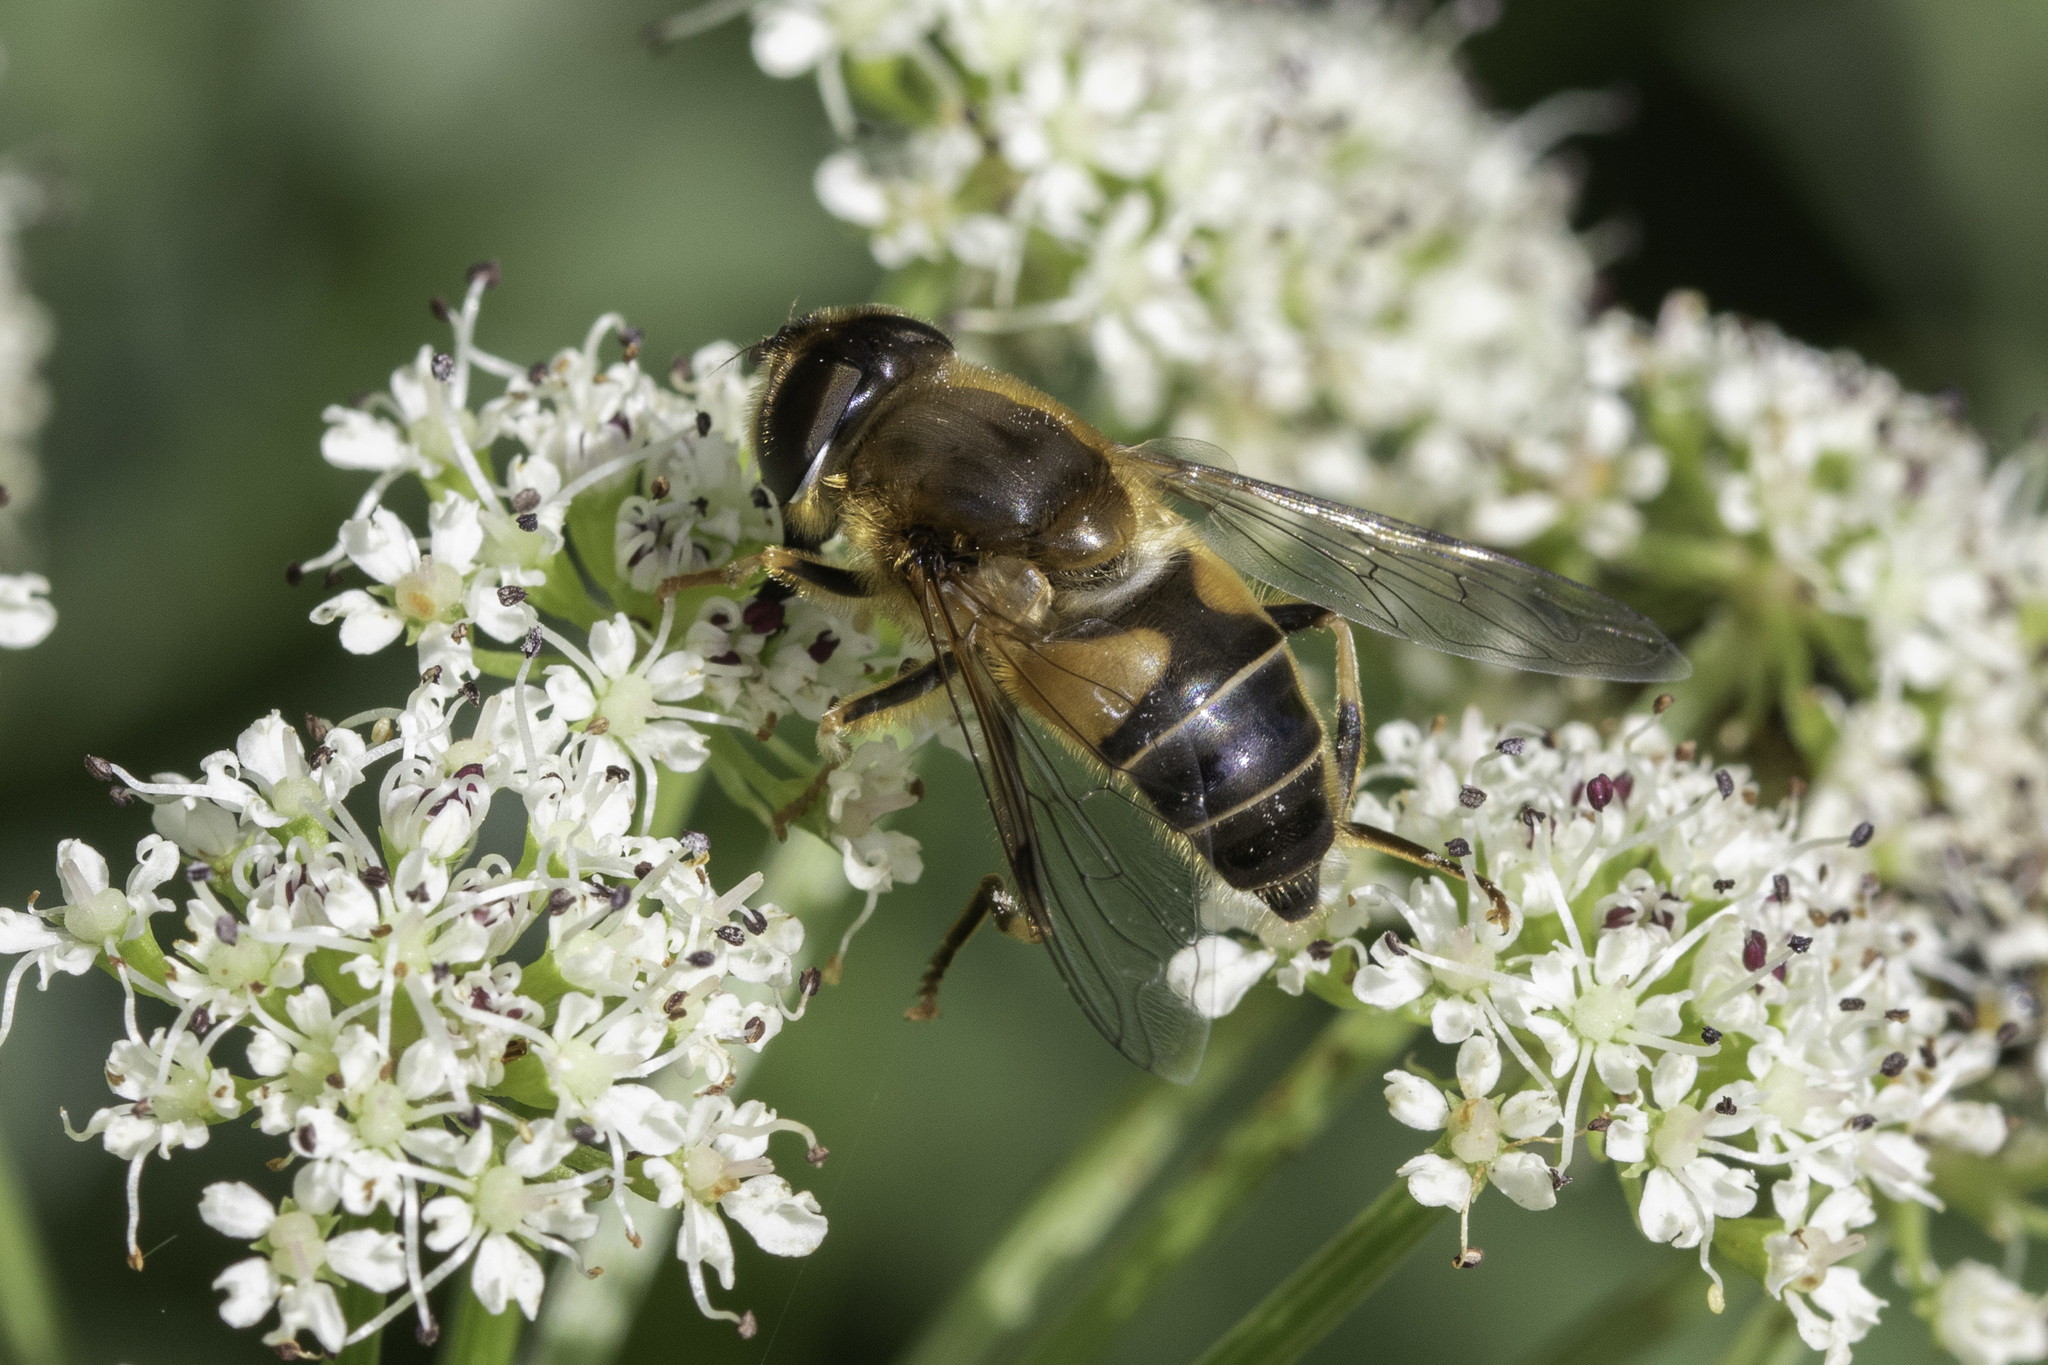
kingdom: Animalia
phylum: Arthropoda
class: Insecta
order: Diptera
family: Syrphidae
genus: Eristalis
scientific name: Eristalis pertinax
